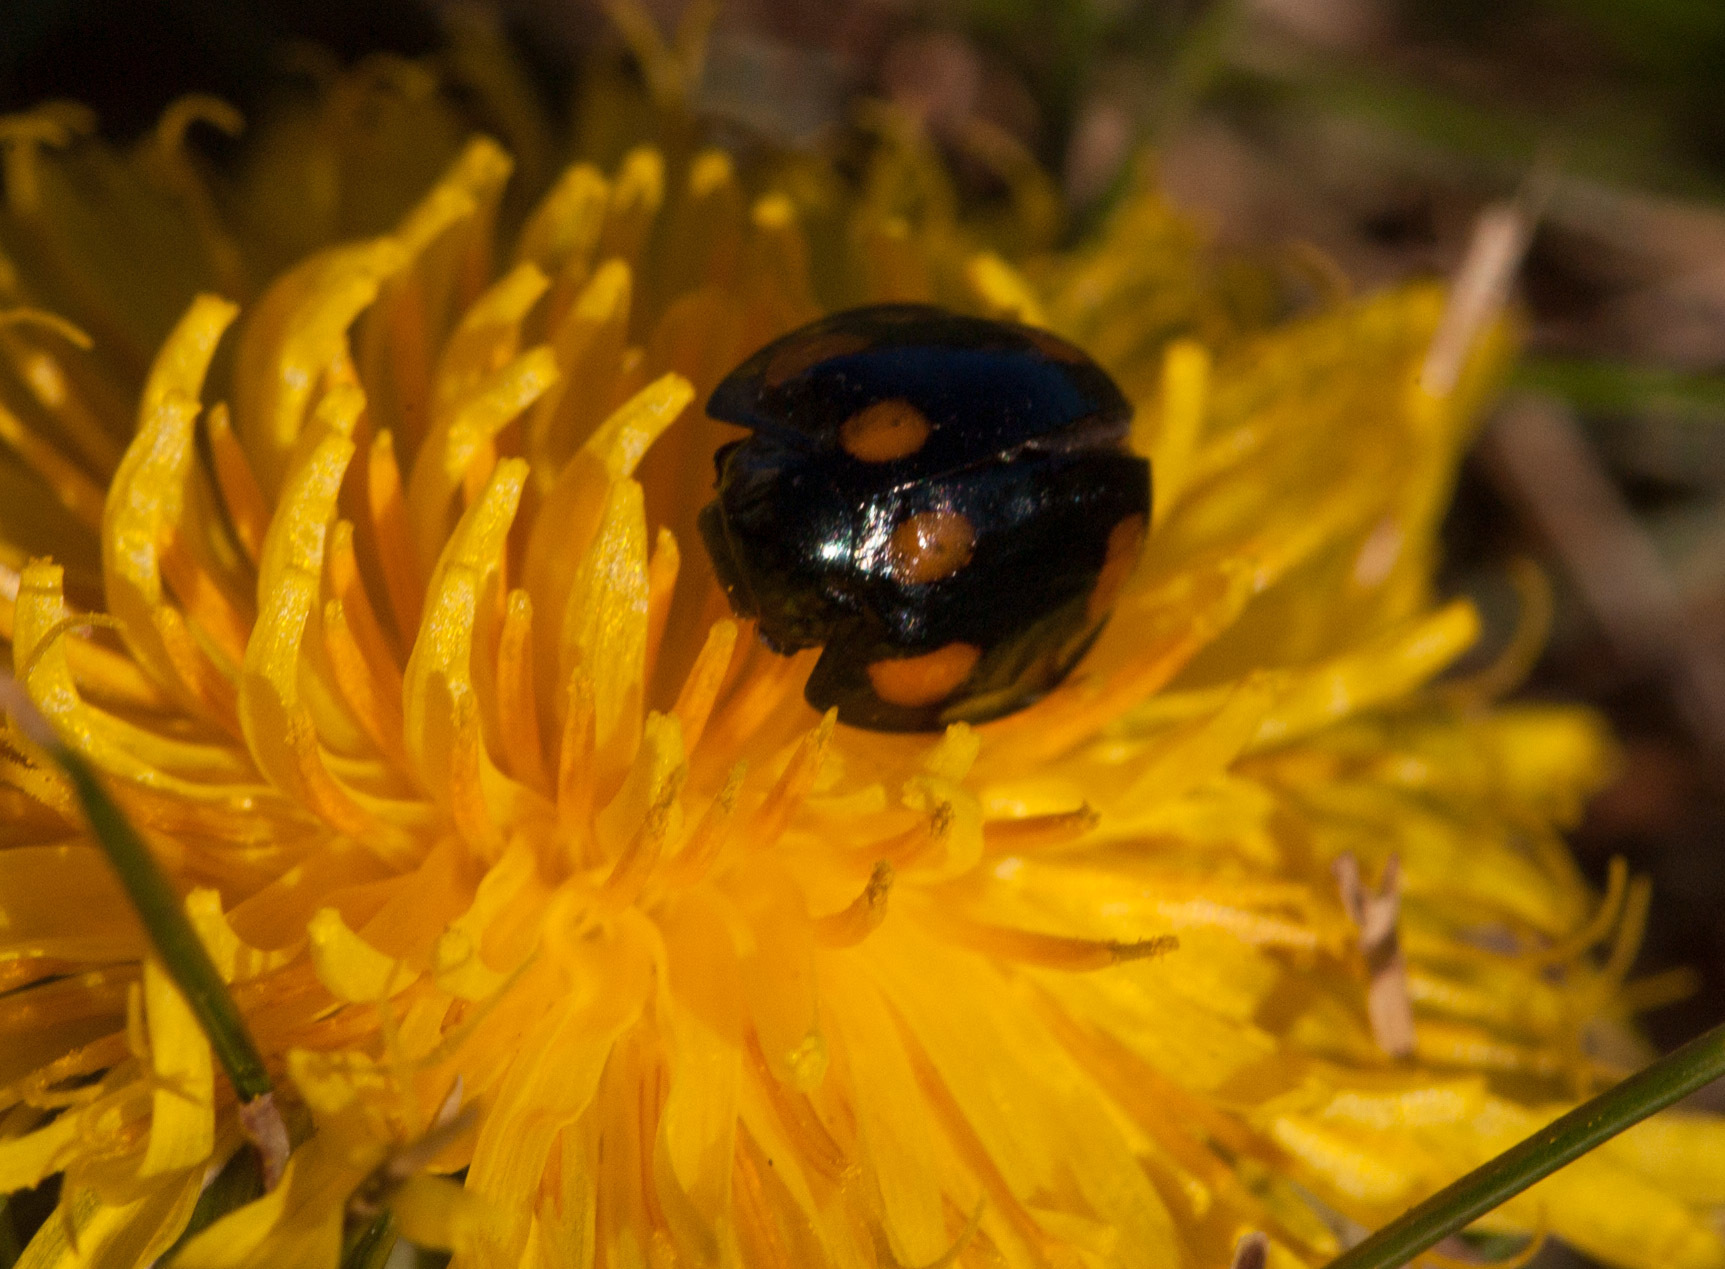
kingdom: Animalia
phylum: Arthropoda
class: Insecta
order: Coleoptera
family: Coccinellidae
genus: Orcus
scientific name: Orcus australasiae
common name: Lady beetle
